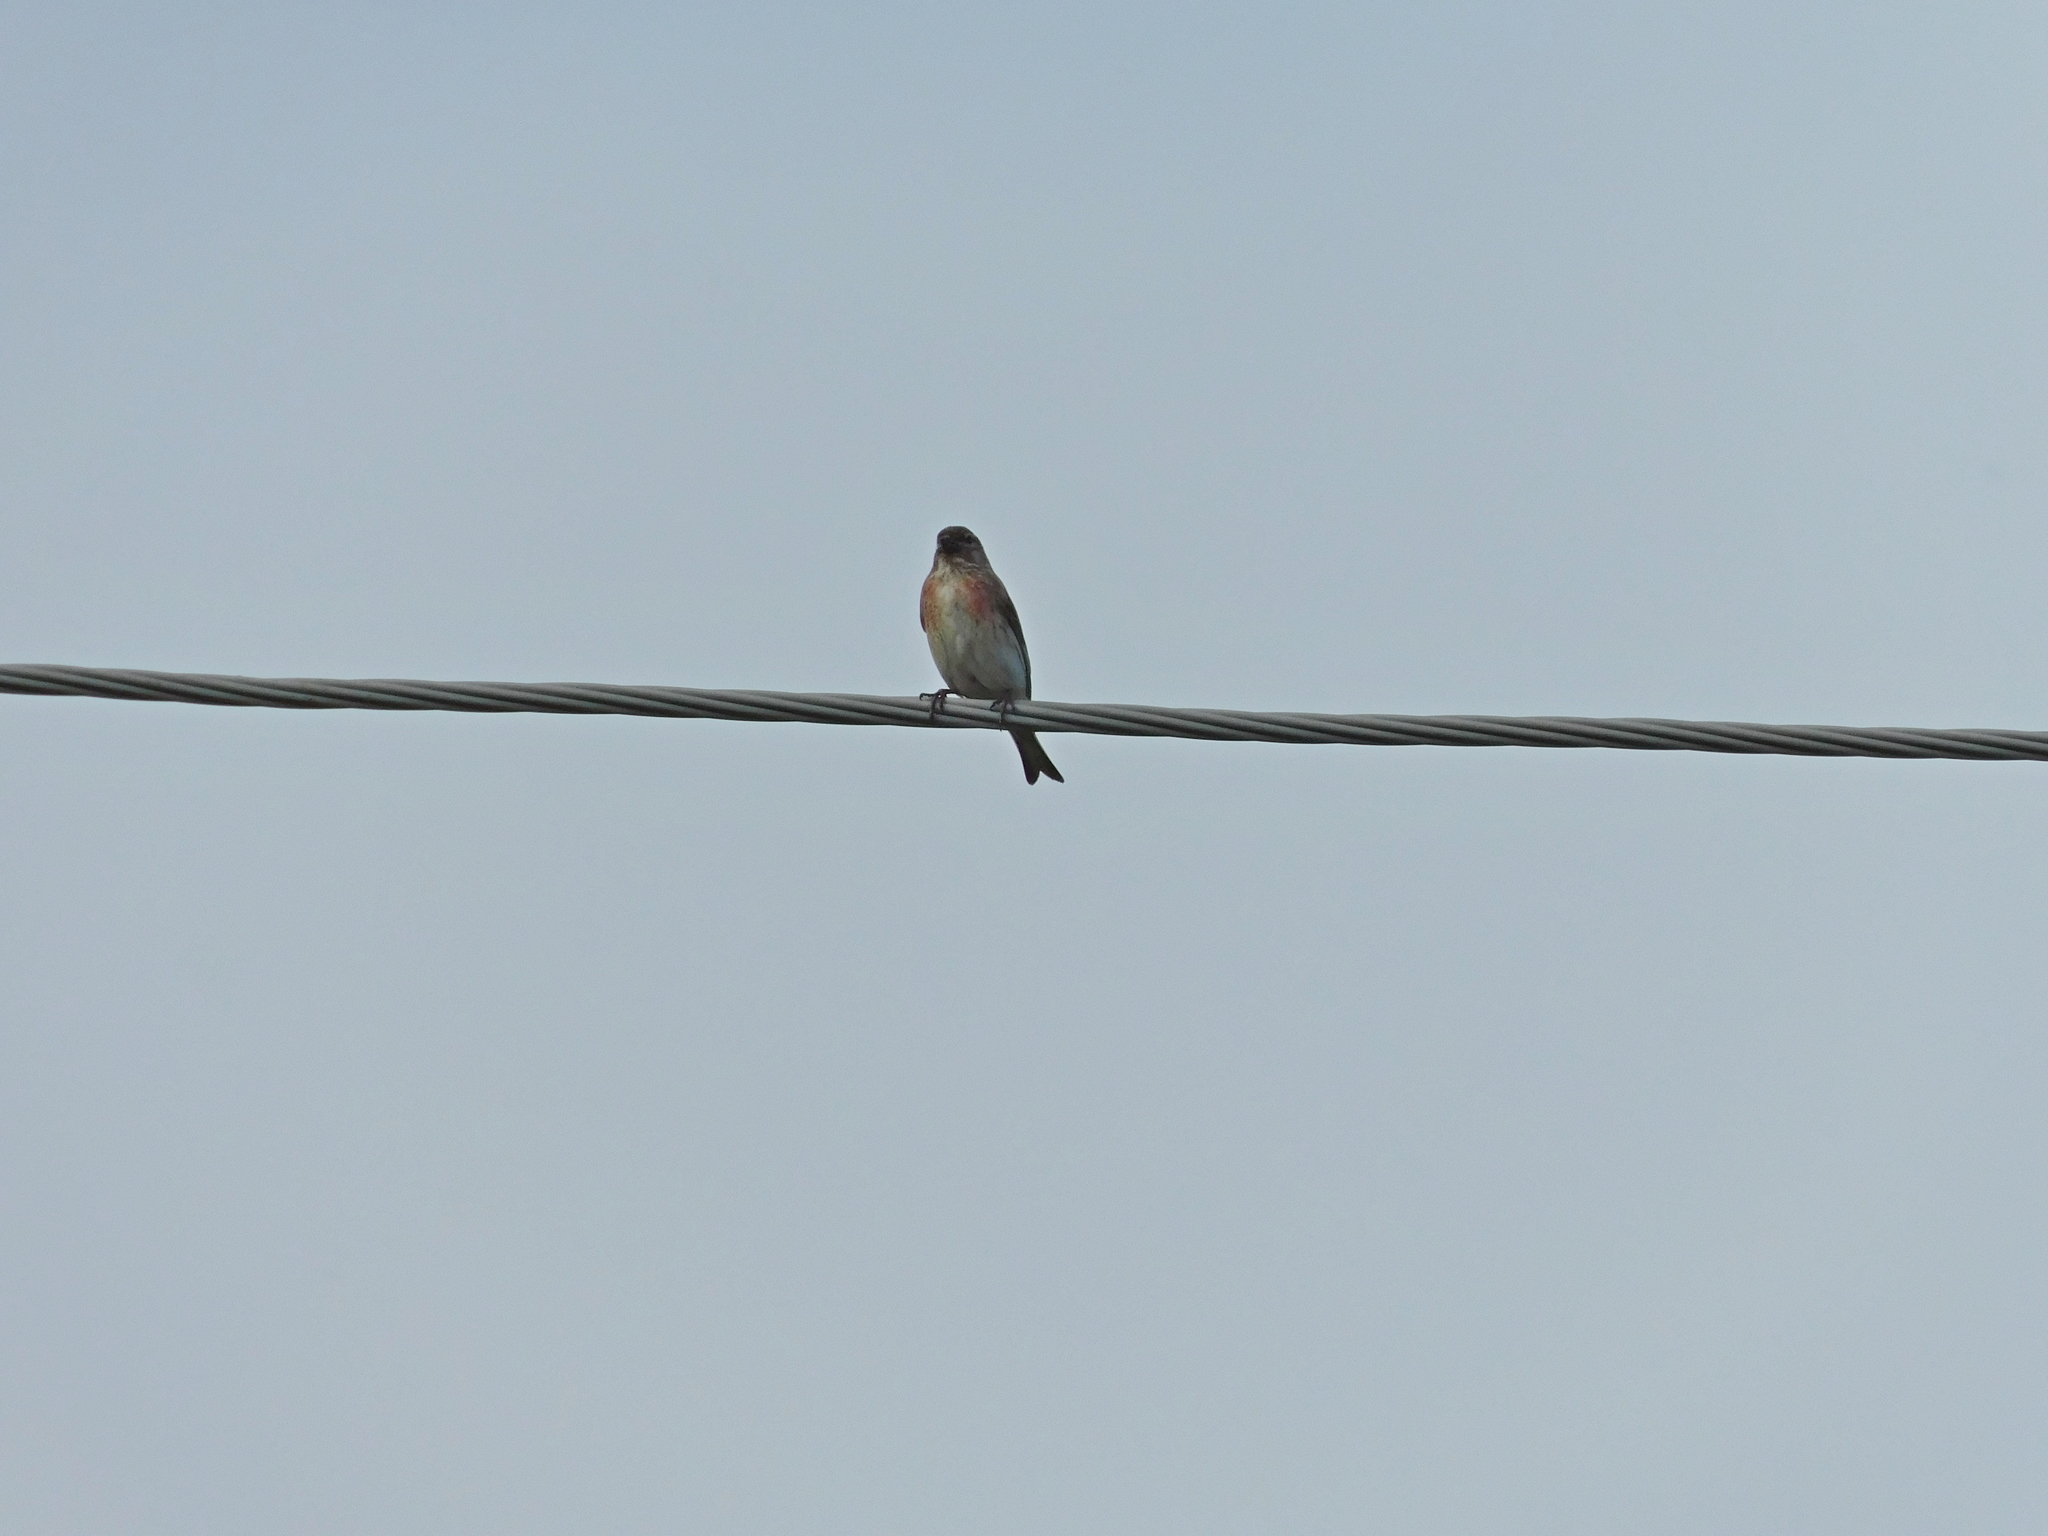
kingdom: Animalia
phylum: Chordata
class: Aves
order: Passeriformes
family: Fringillidae
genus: Linaria
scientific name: Linaria cannabina
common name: Common linnet
